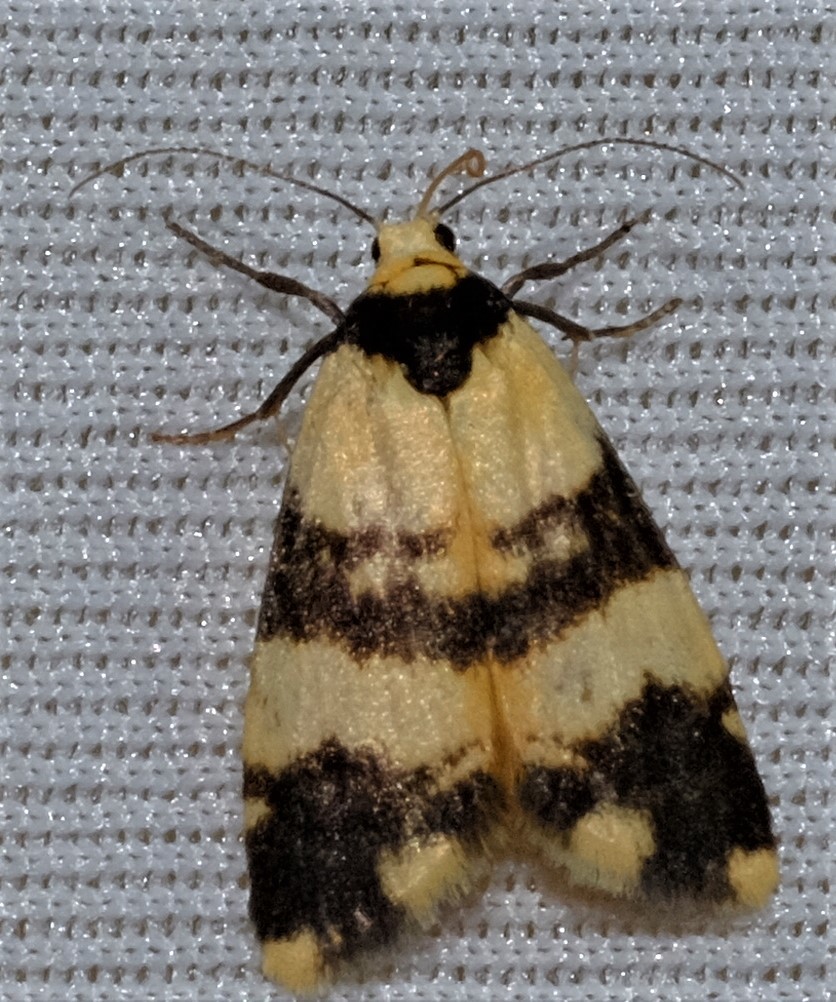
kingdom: Animalia
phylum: Arthropoda
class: Insecta
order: Lepidoptera
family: Erebidae
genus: Thallarcha
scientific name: Thallarcha chrysochares
